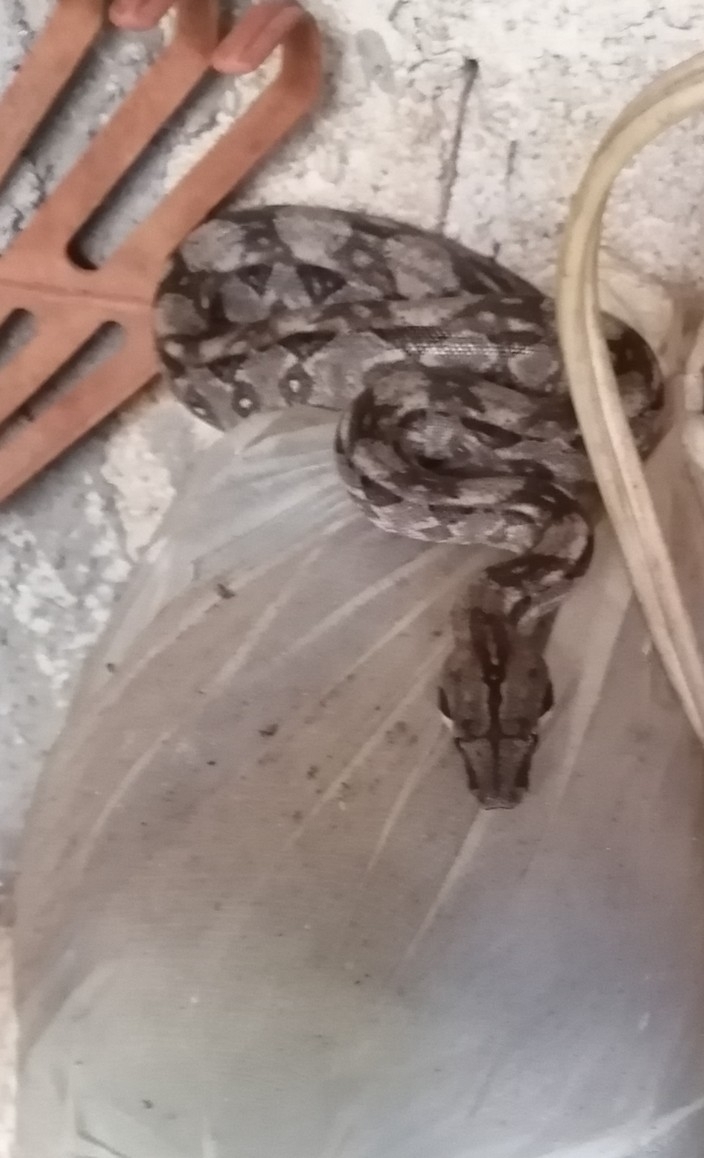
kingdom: Animalia
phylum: Chordata
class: Squamata
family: Boidae
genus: Boa
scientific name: Boa imperator
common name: Central american boa
